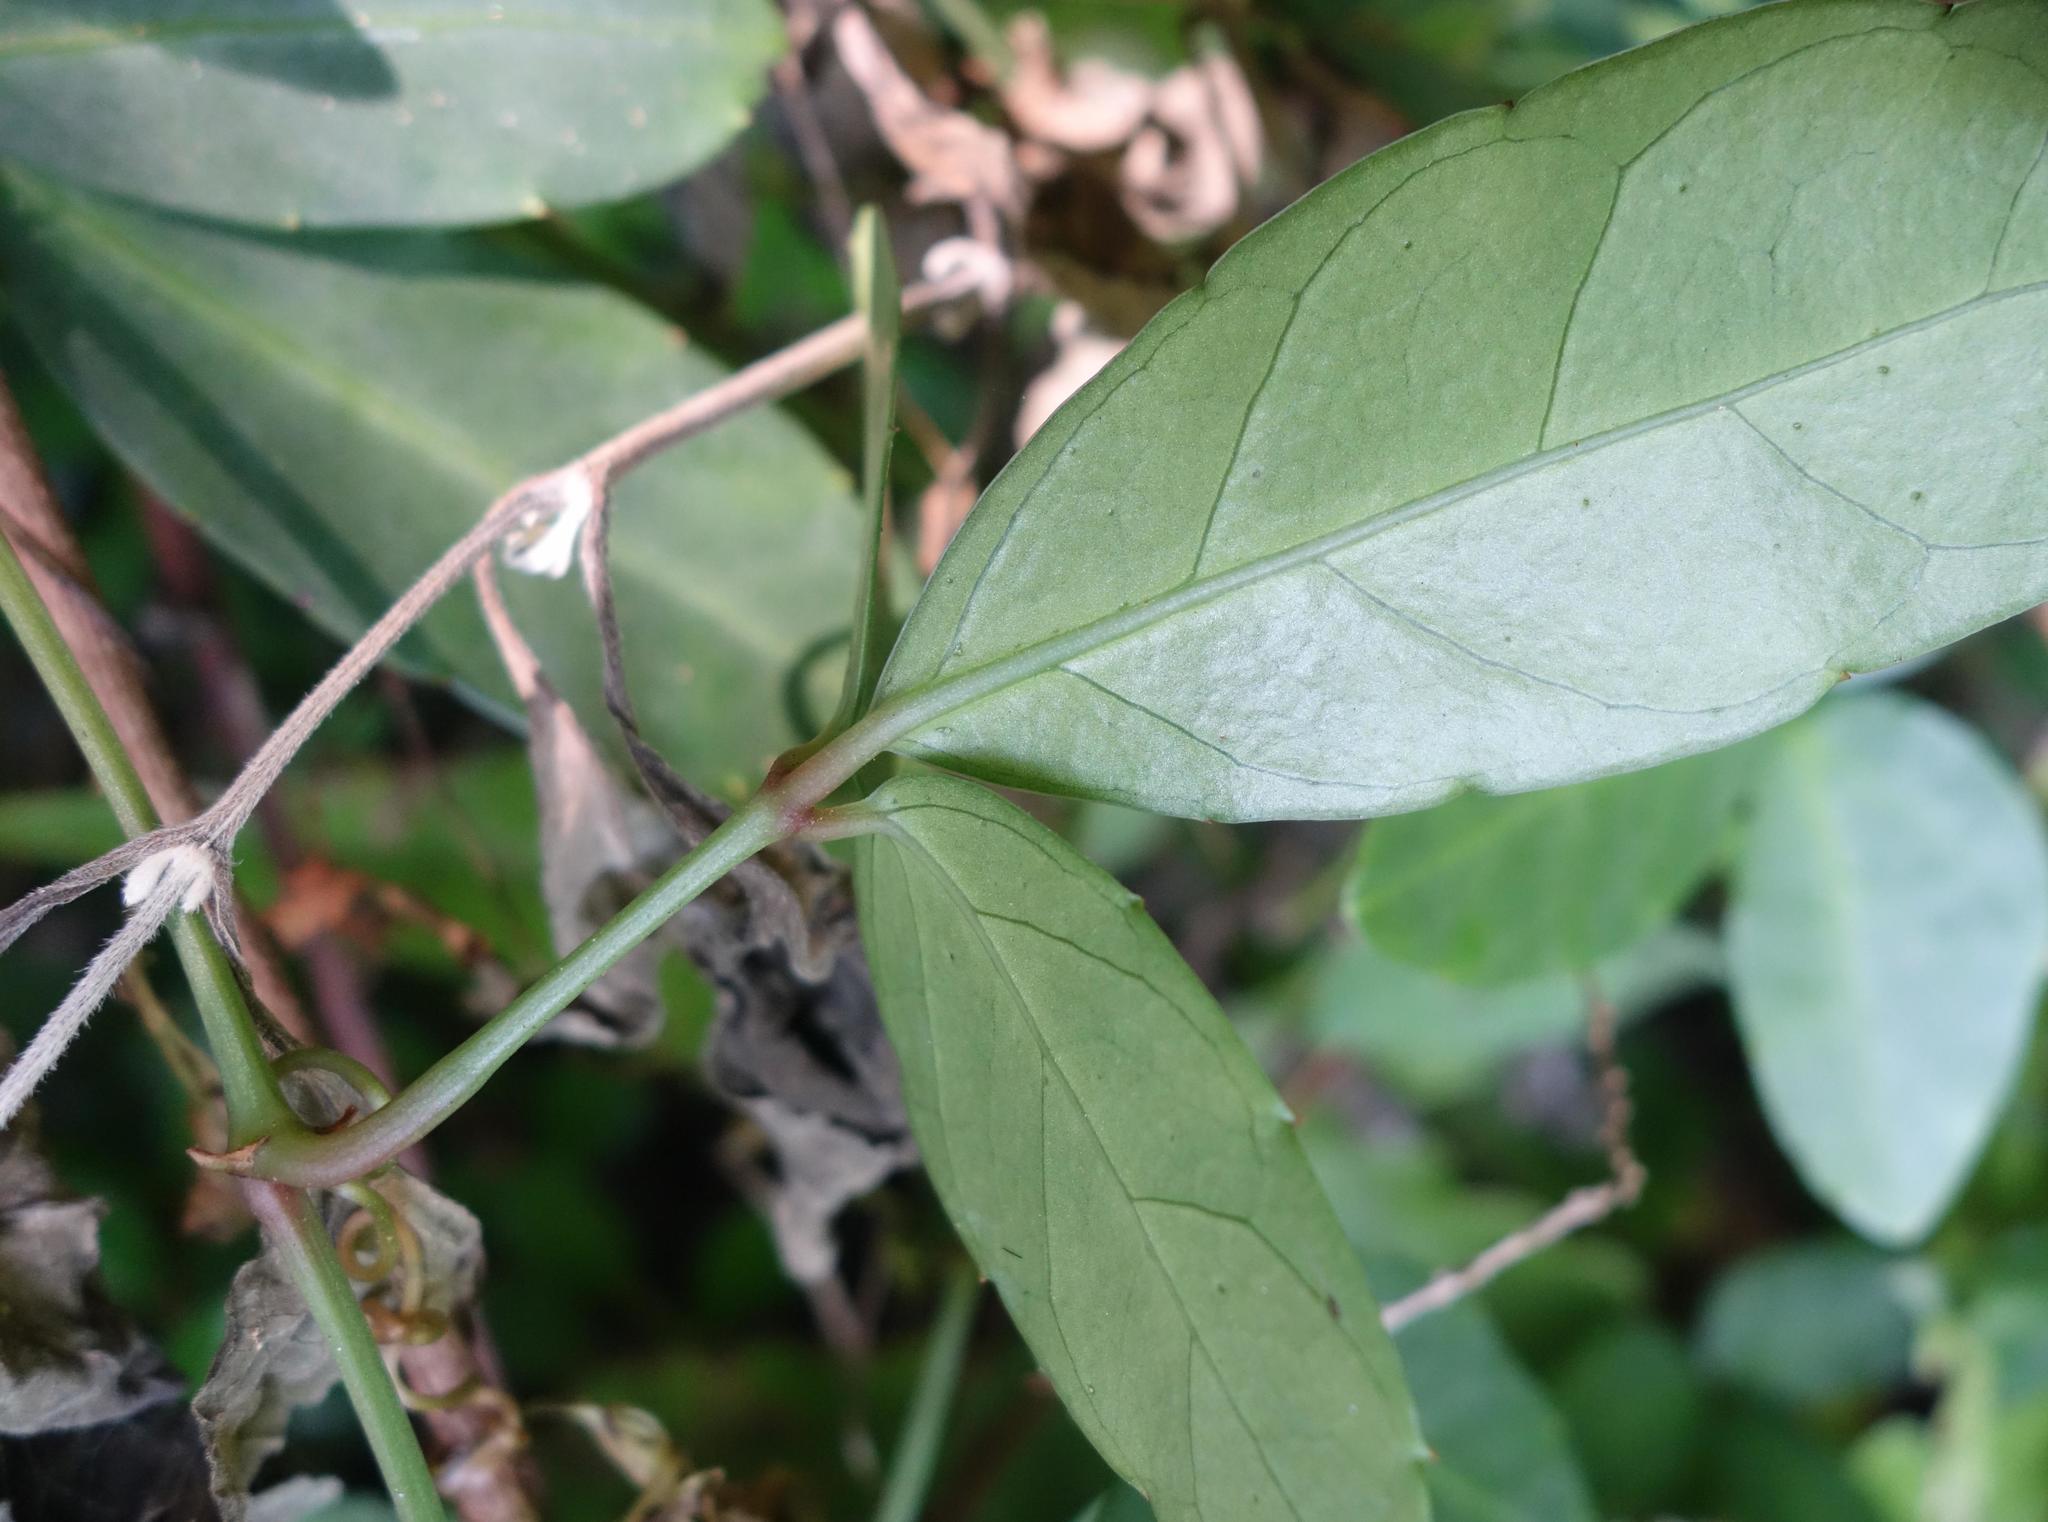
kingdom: Plantae
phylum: Tracheophyta
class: Magnoliopsida
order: Vitales
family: Vitaceae
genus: Tetrastigma
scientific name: Tetrastigma formosanum
